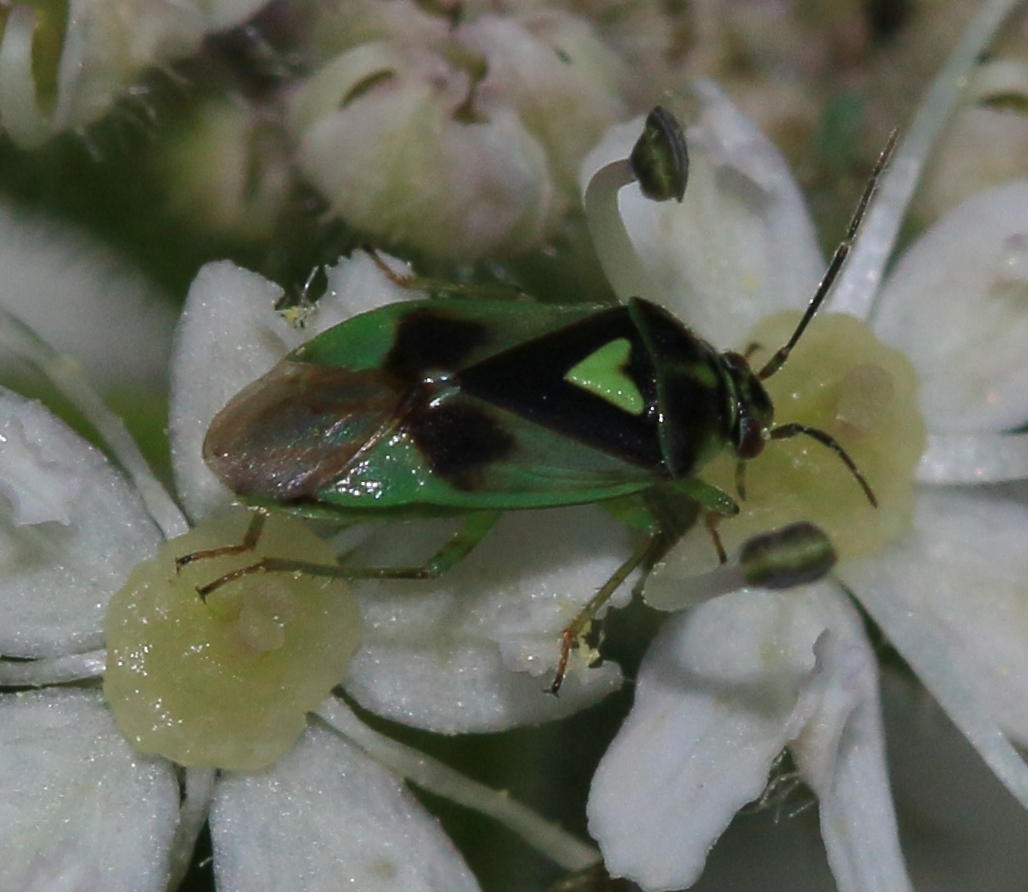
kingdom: Animalia
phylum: Arthropoda
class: Insecta
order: Hemiptera
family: Miridae
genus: Orthops
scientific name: Orthops campestris
